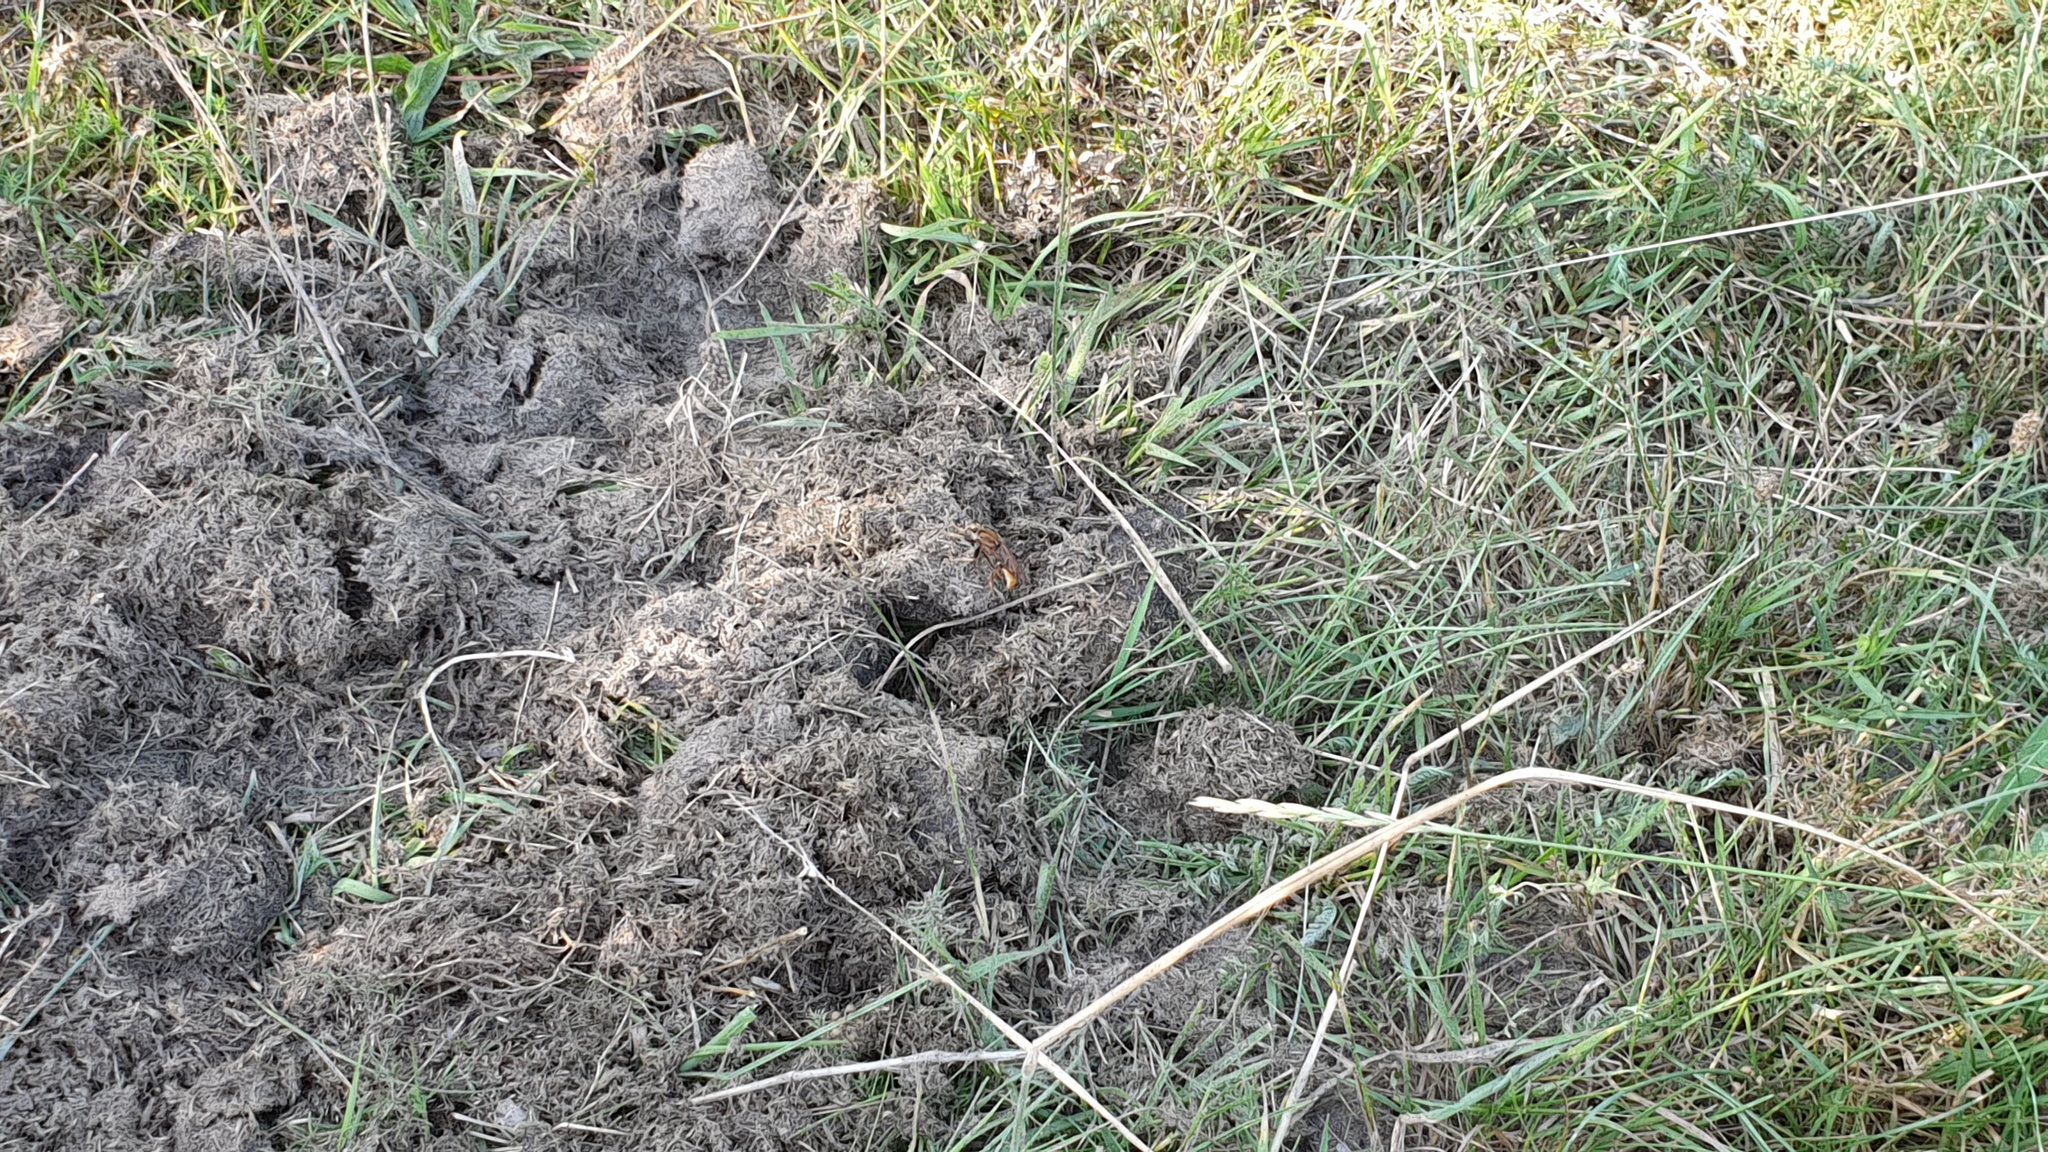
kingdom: Animalia
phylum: Arthropoda
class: Insecta
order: Diptera
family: Asilidae
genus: Asilus
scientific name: Asilus crabroniformis
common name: Hornet robberfly
